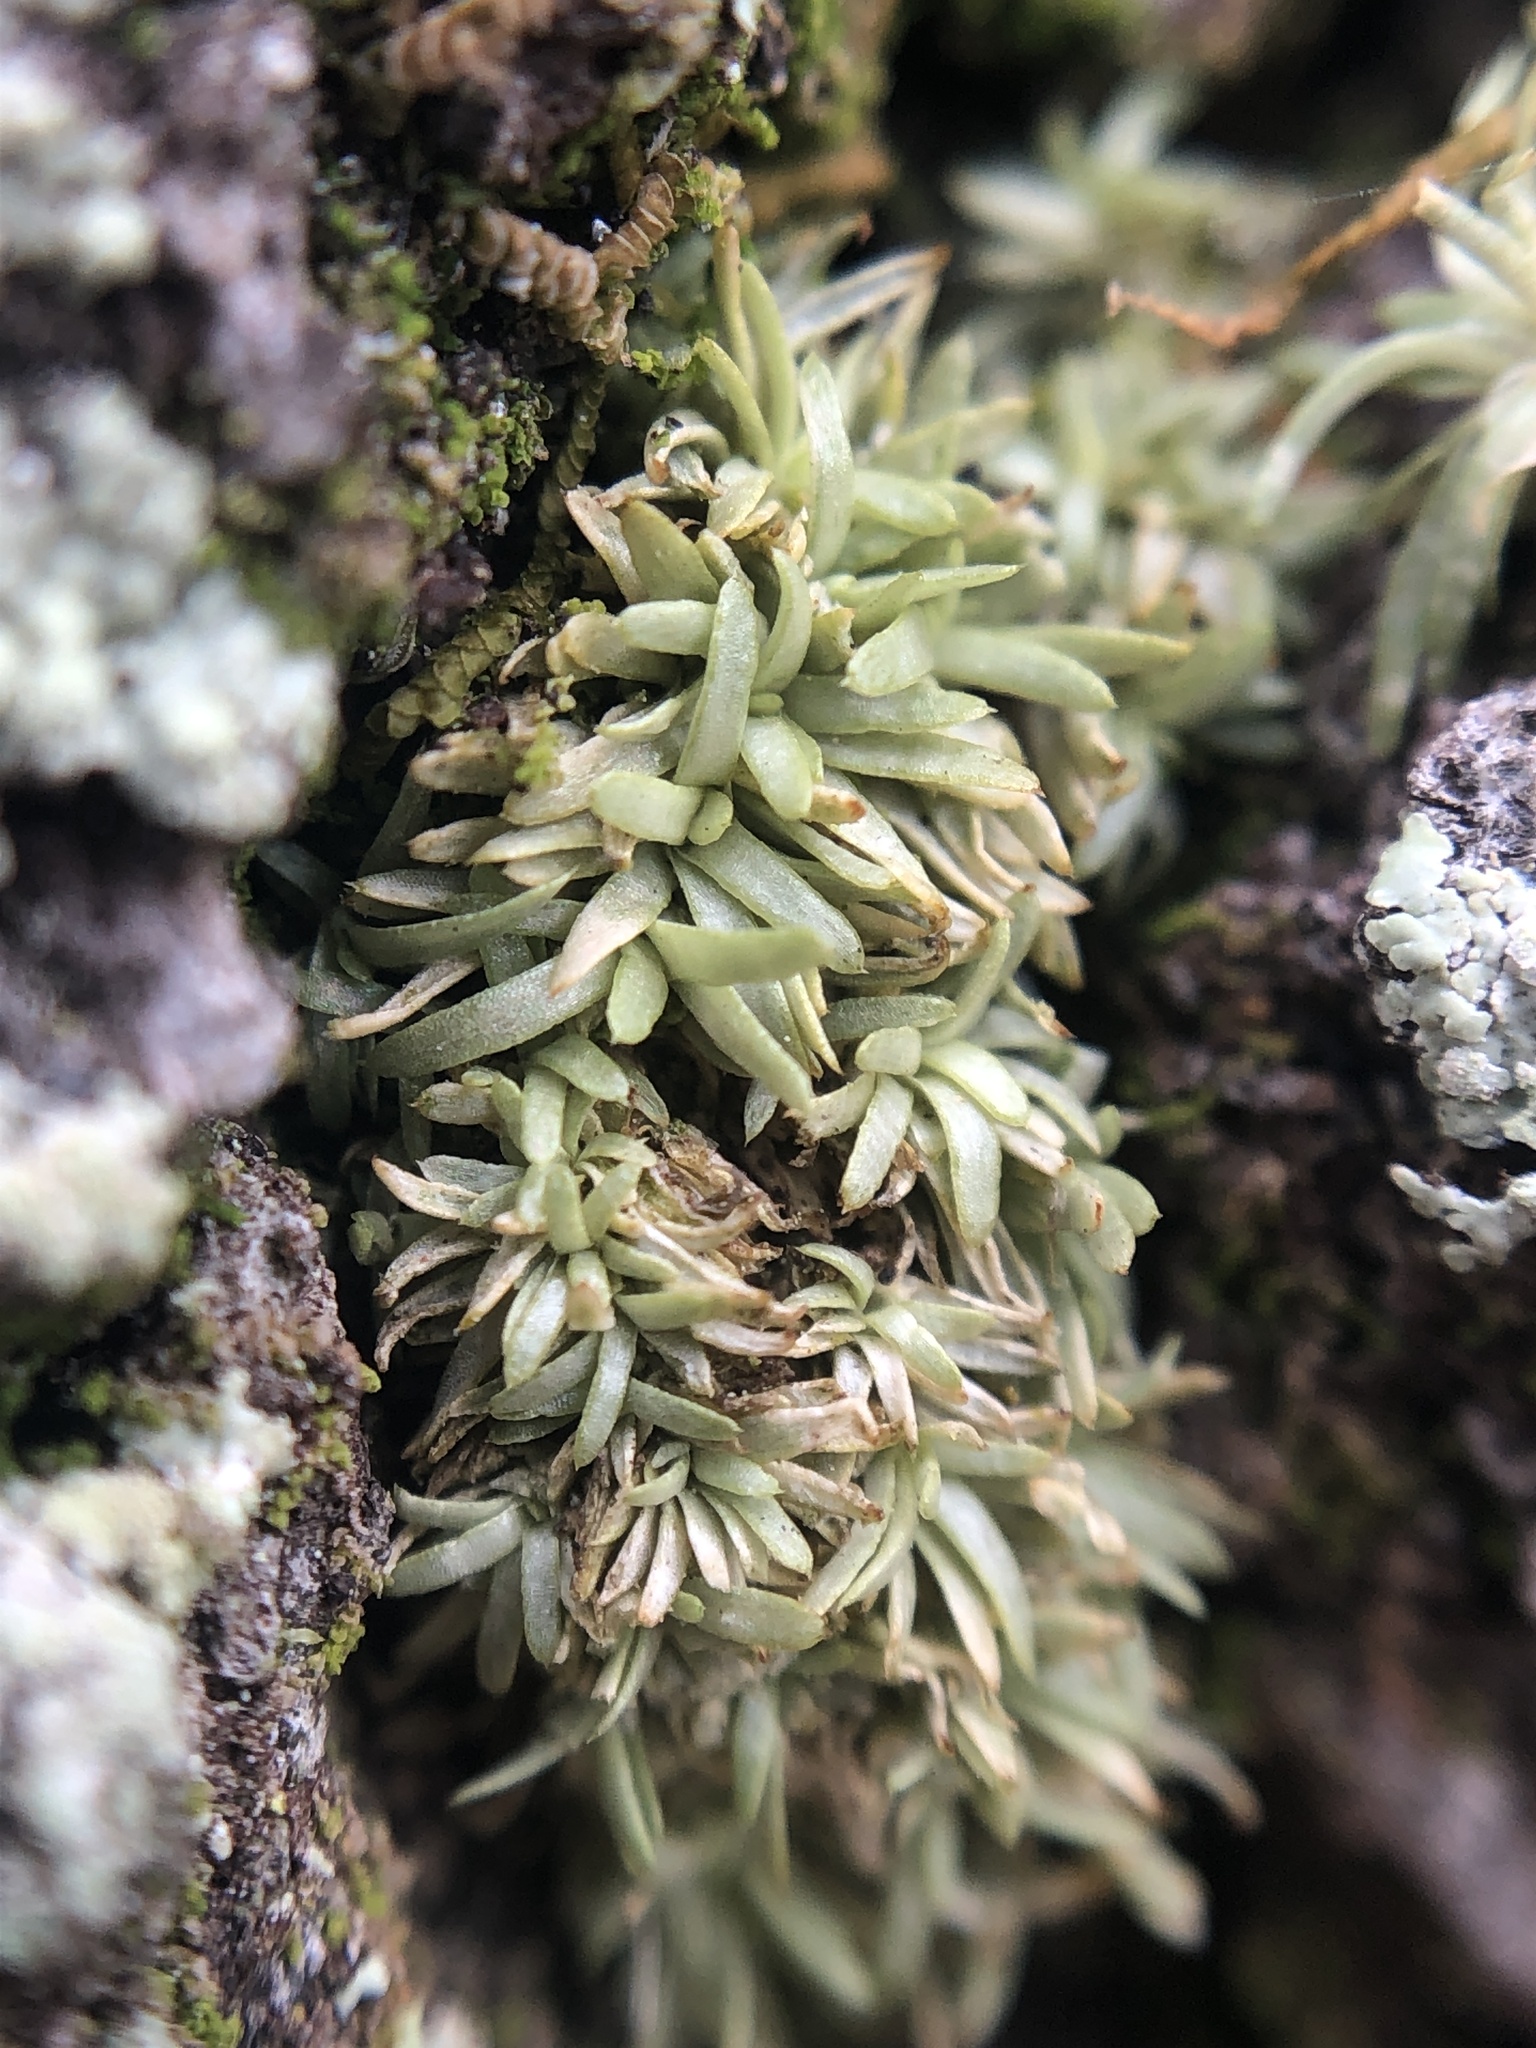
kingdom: Plantae
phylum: Bryophyta
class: Bryopsida
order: Dicranales
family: Octoblepharaceae
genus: Octoblepharum
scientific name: Octoblepharum albidum
